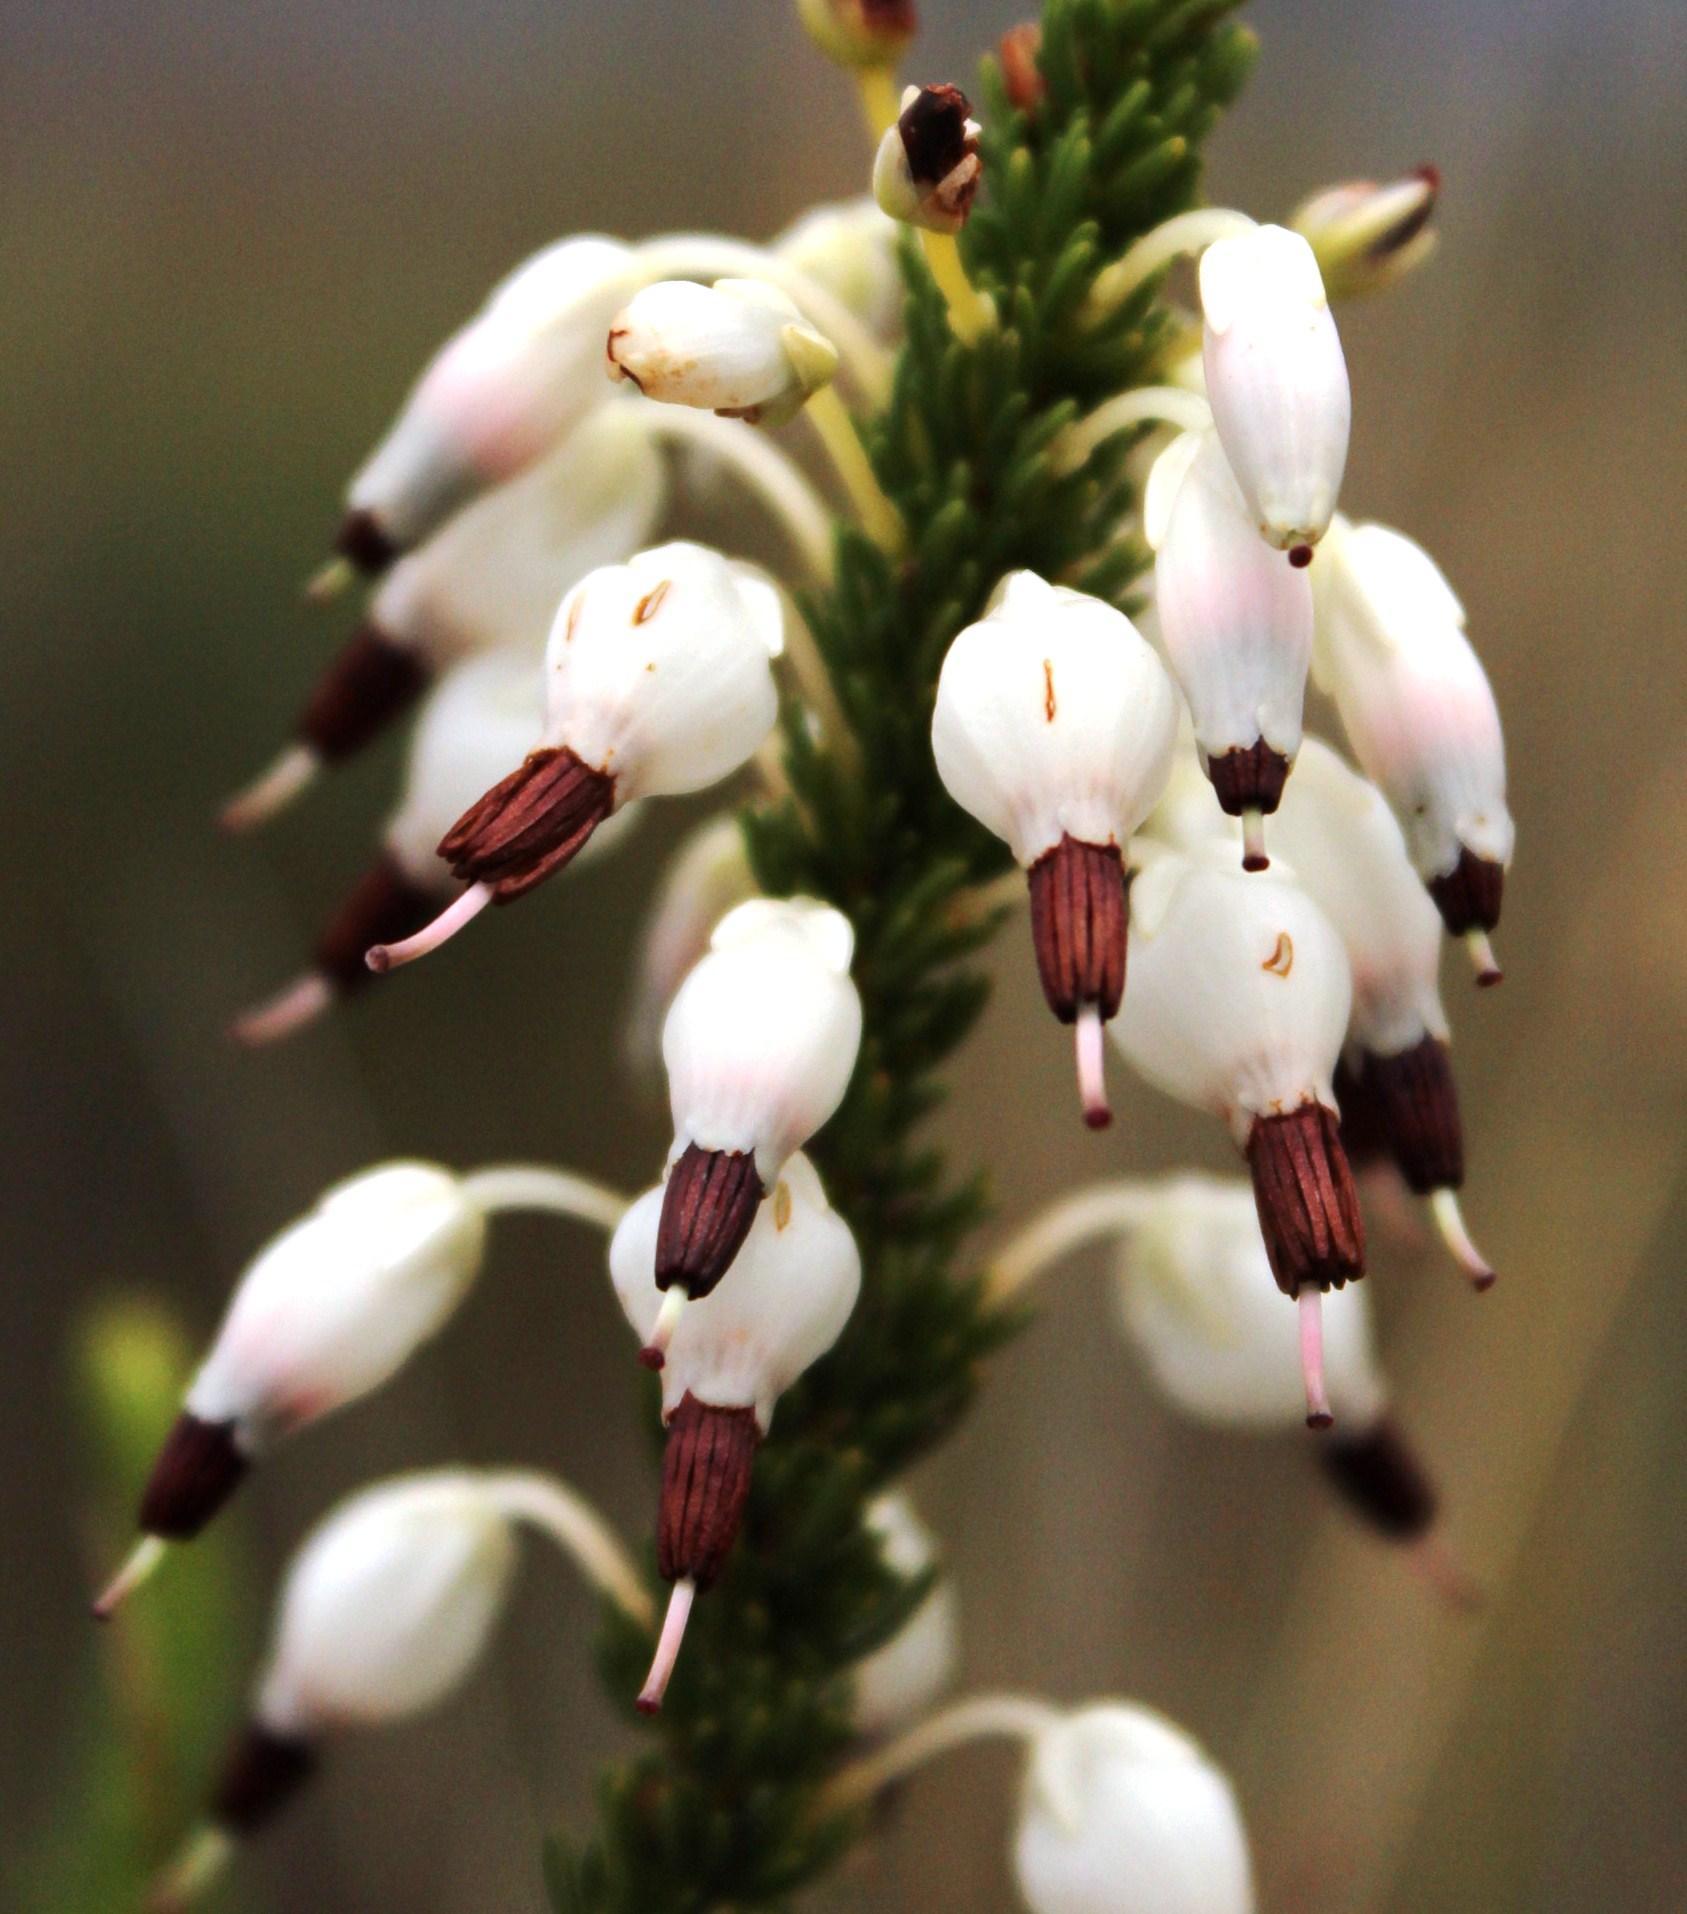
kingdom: Plantae
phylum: Tracheophyta
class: Magnoliopsida
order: Ericales
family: Ericaceae
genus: Erica
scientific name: Erica plukenetii
